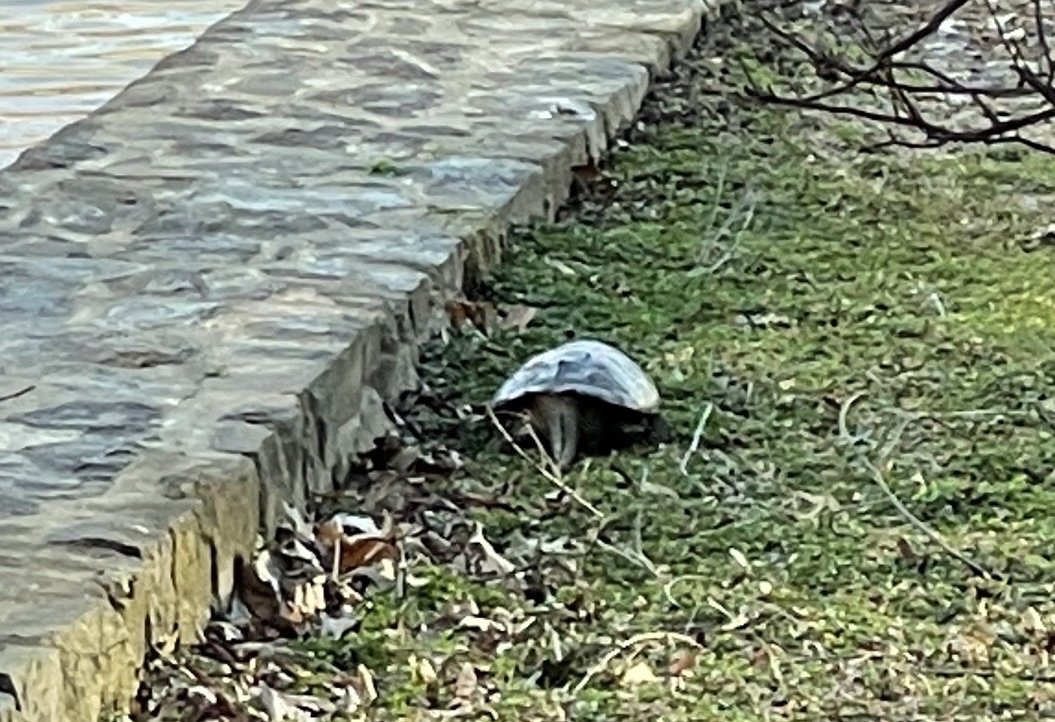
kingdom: Animalia
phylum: Chordata
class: Testudines
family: Chelydridae
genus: Chelydra
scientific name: Chelydra serpentina
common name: Common snapping turtle
